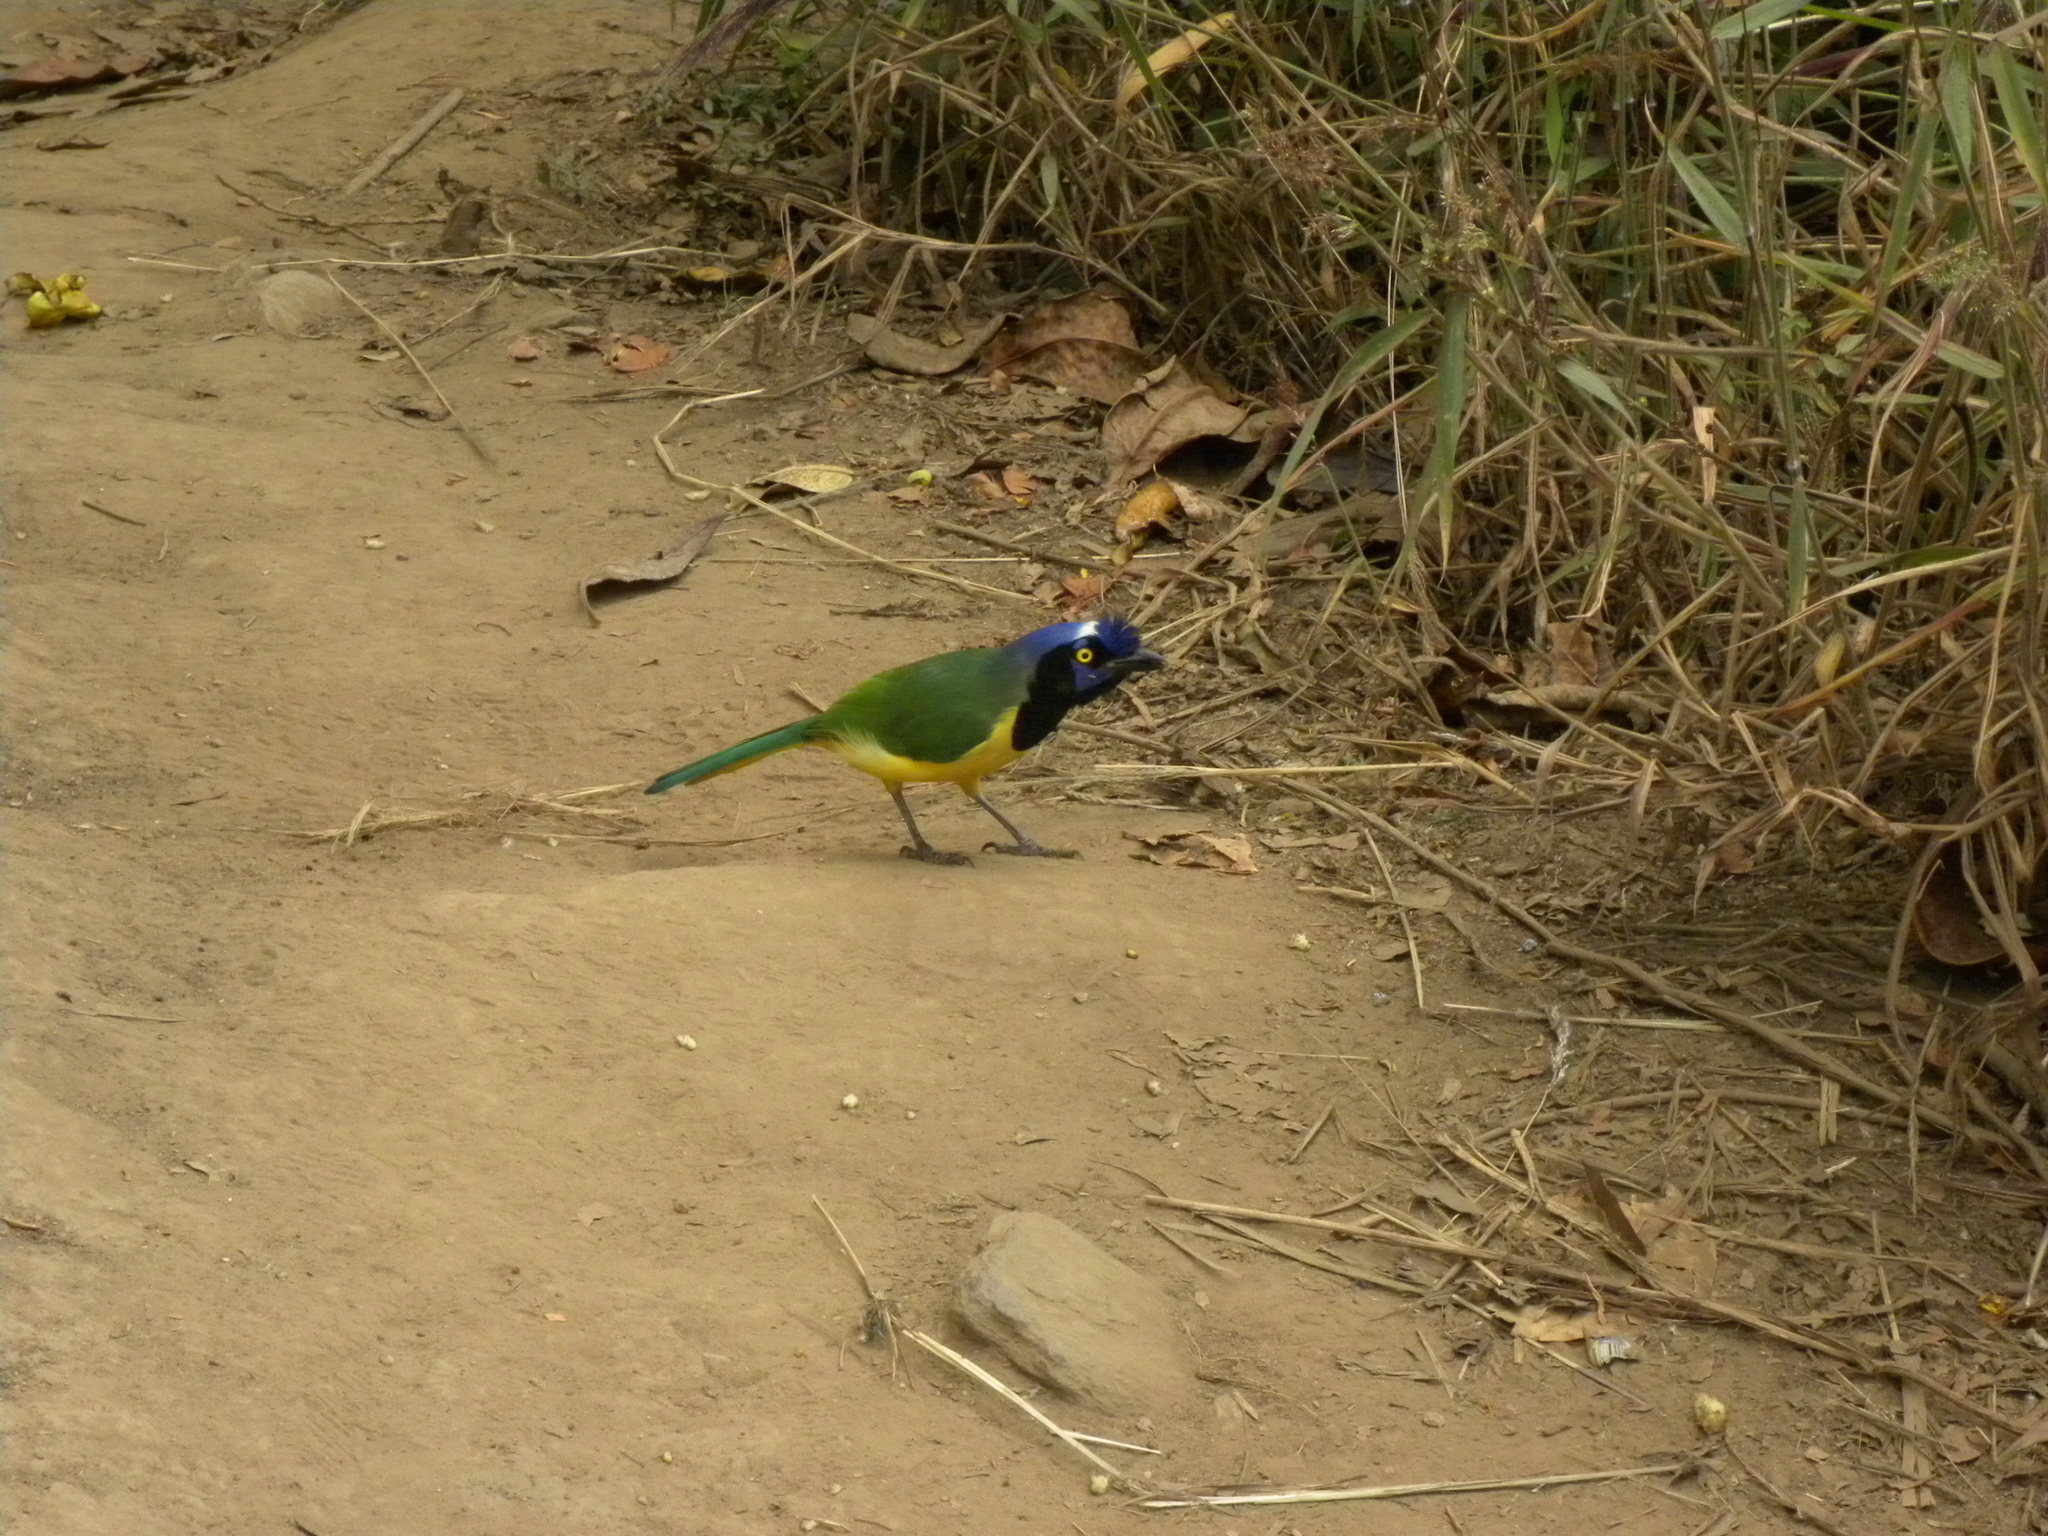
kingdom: Animalia
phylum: Chordata
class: Aves
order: Passeriformes
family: Corvidae
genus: Cyanocorax
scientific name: Cyanocorax yncas
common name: Green jay
